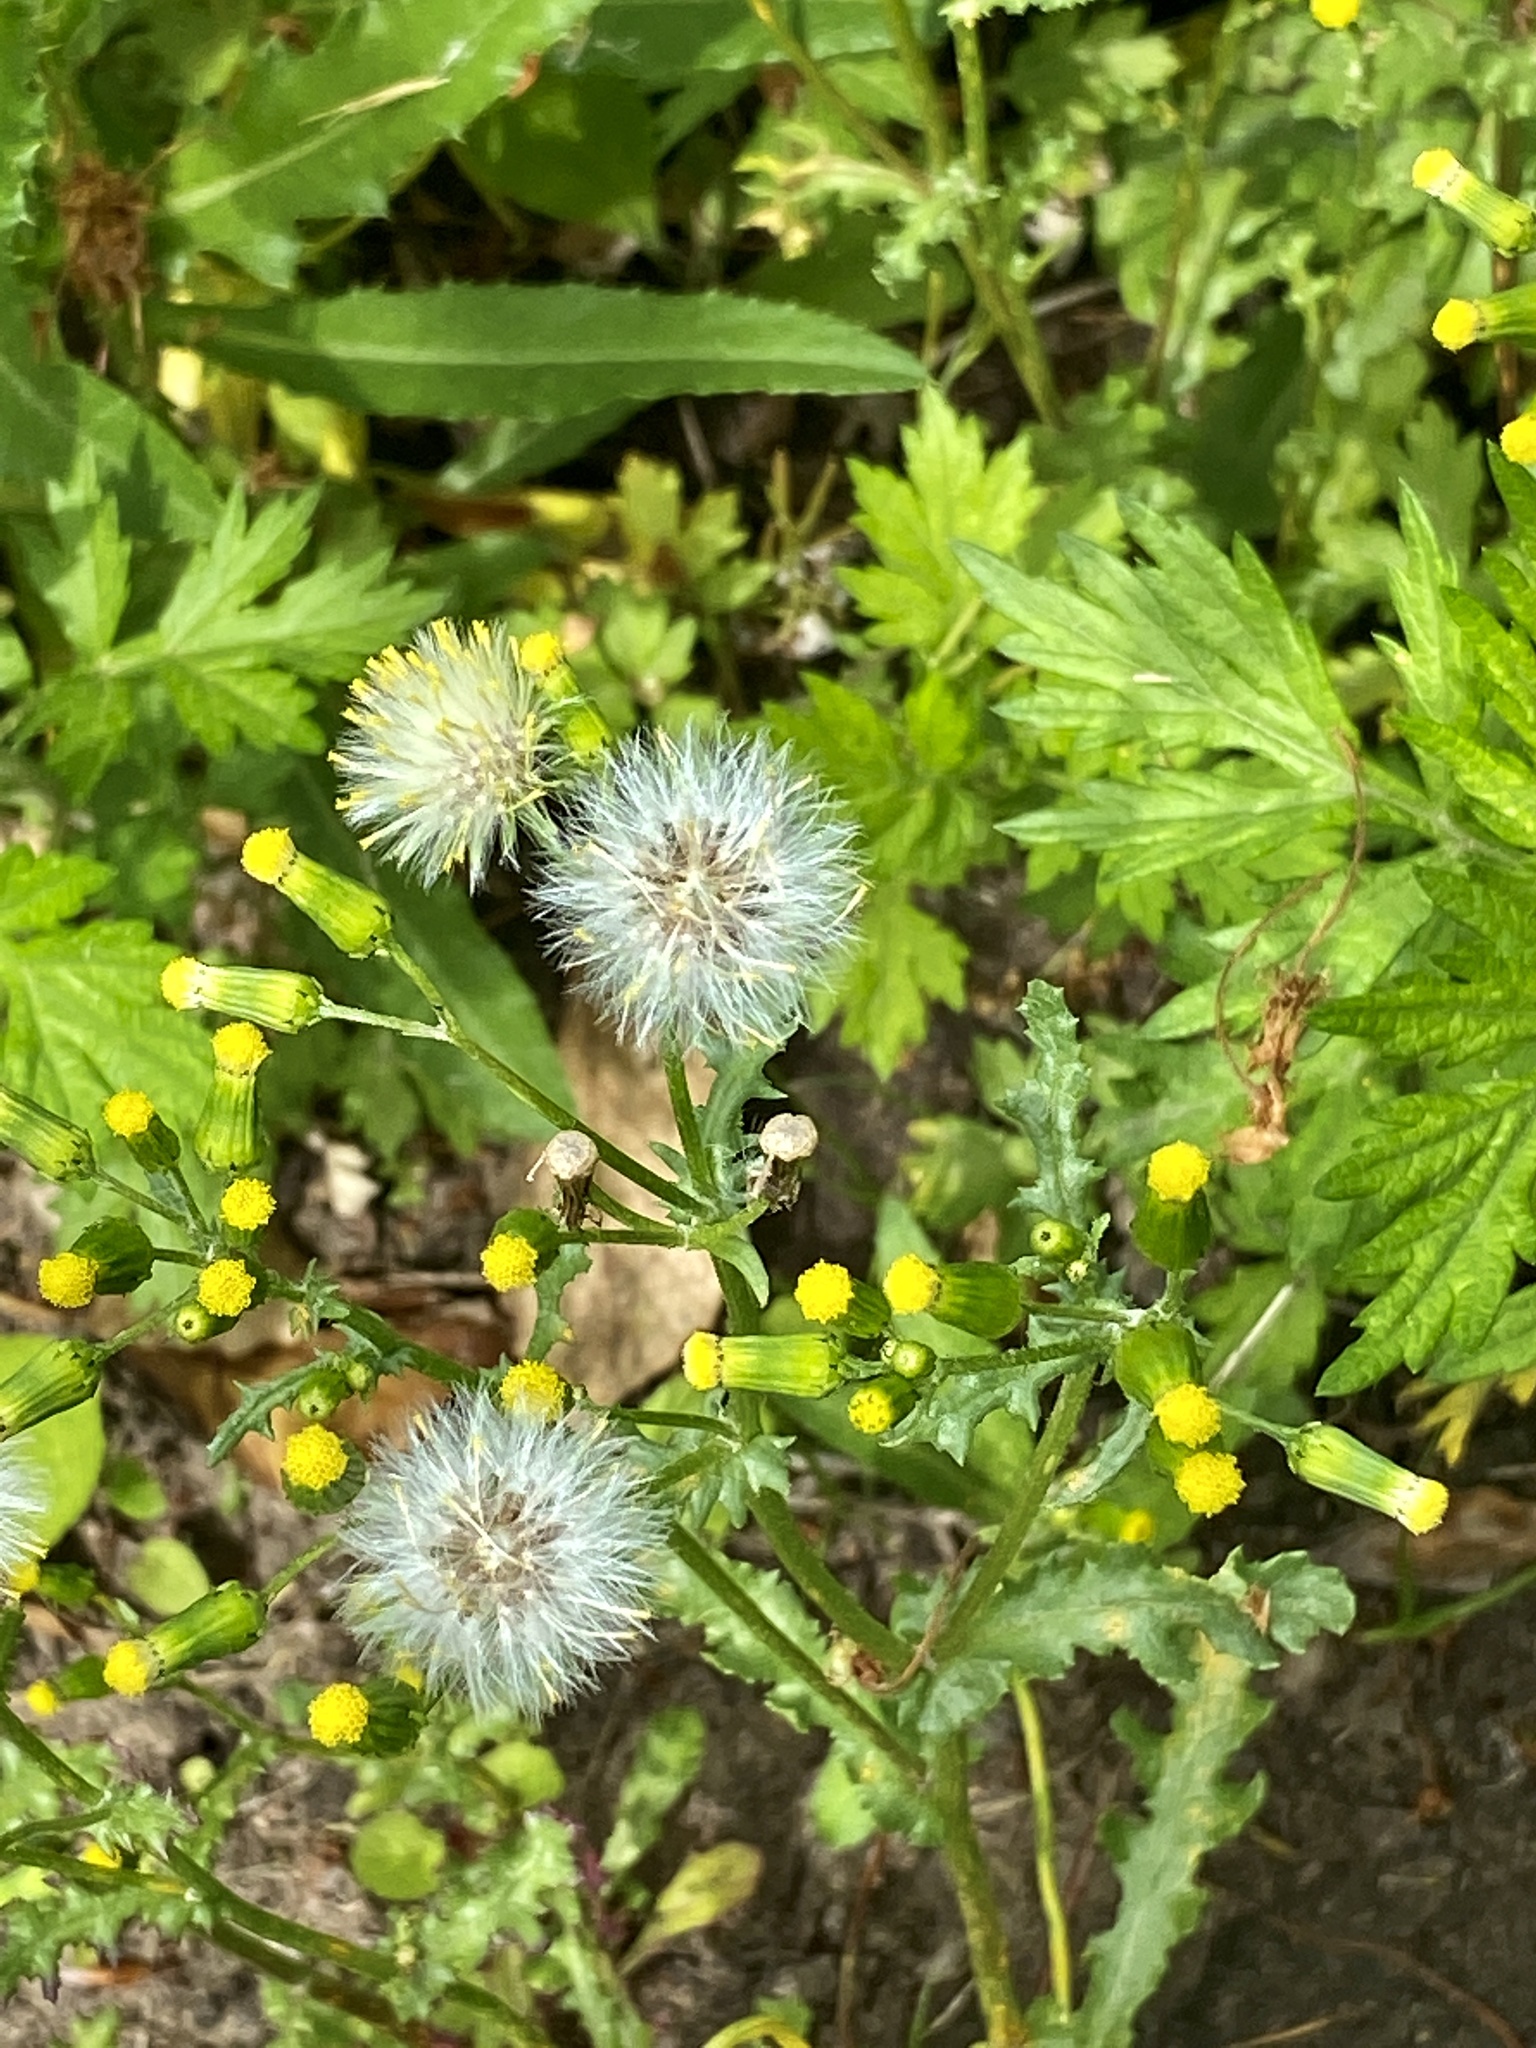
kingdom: Plantae
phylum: Tracheophyta
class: Magnoliopsida
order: Asterales
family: Asteraceae
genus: Senecio
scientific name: Senecio vulgaris
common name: Old-man-in-the-spring
